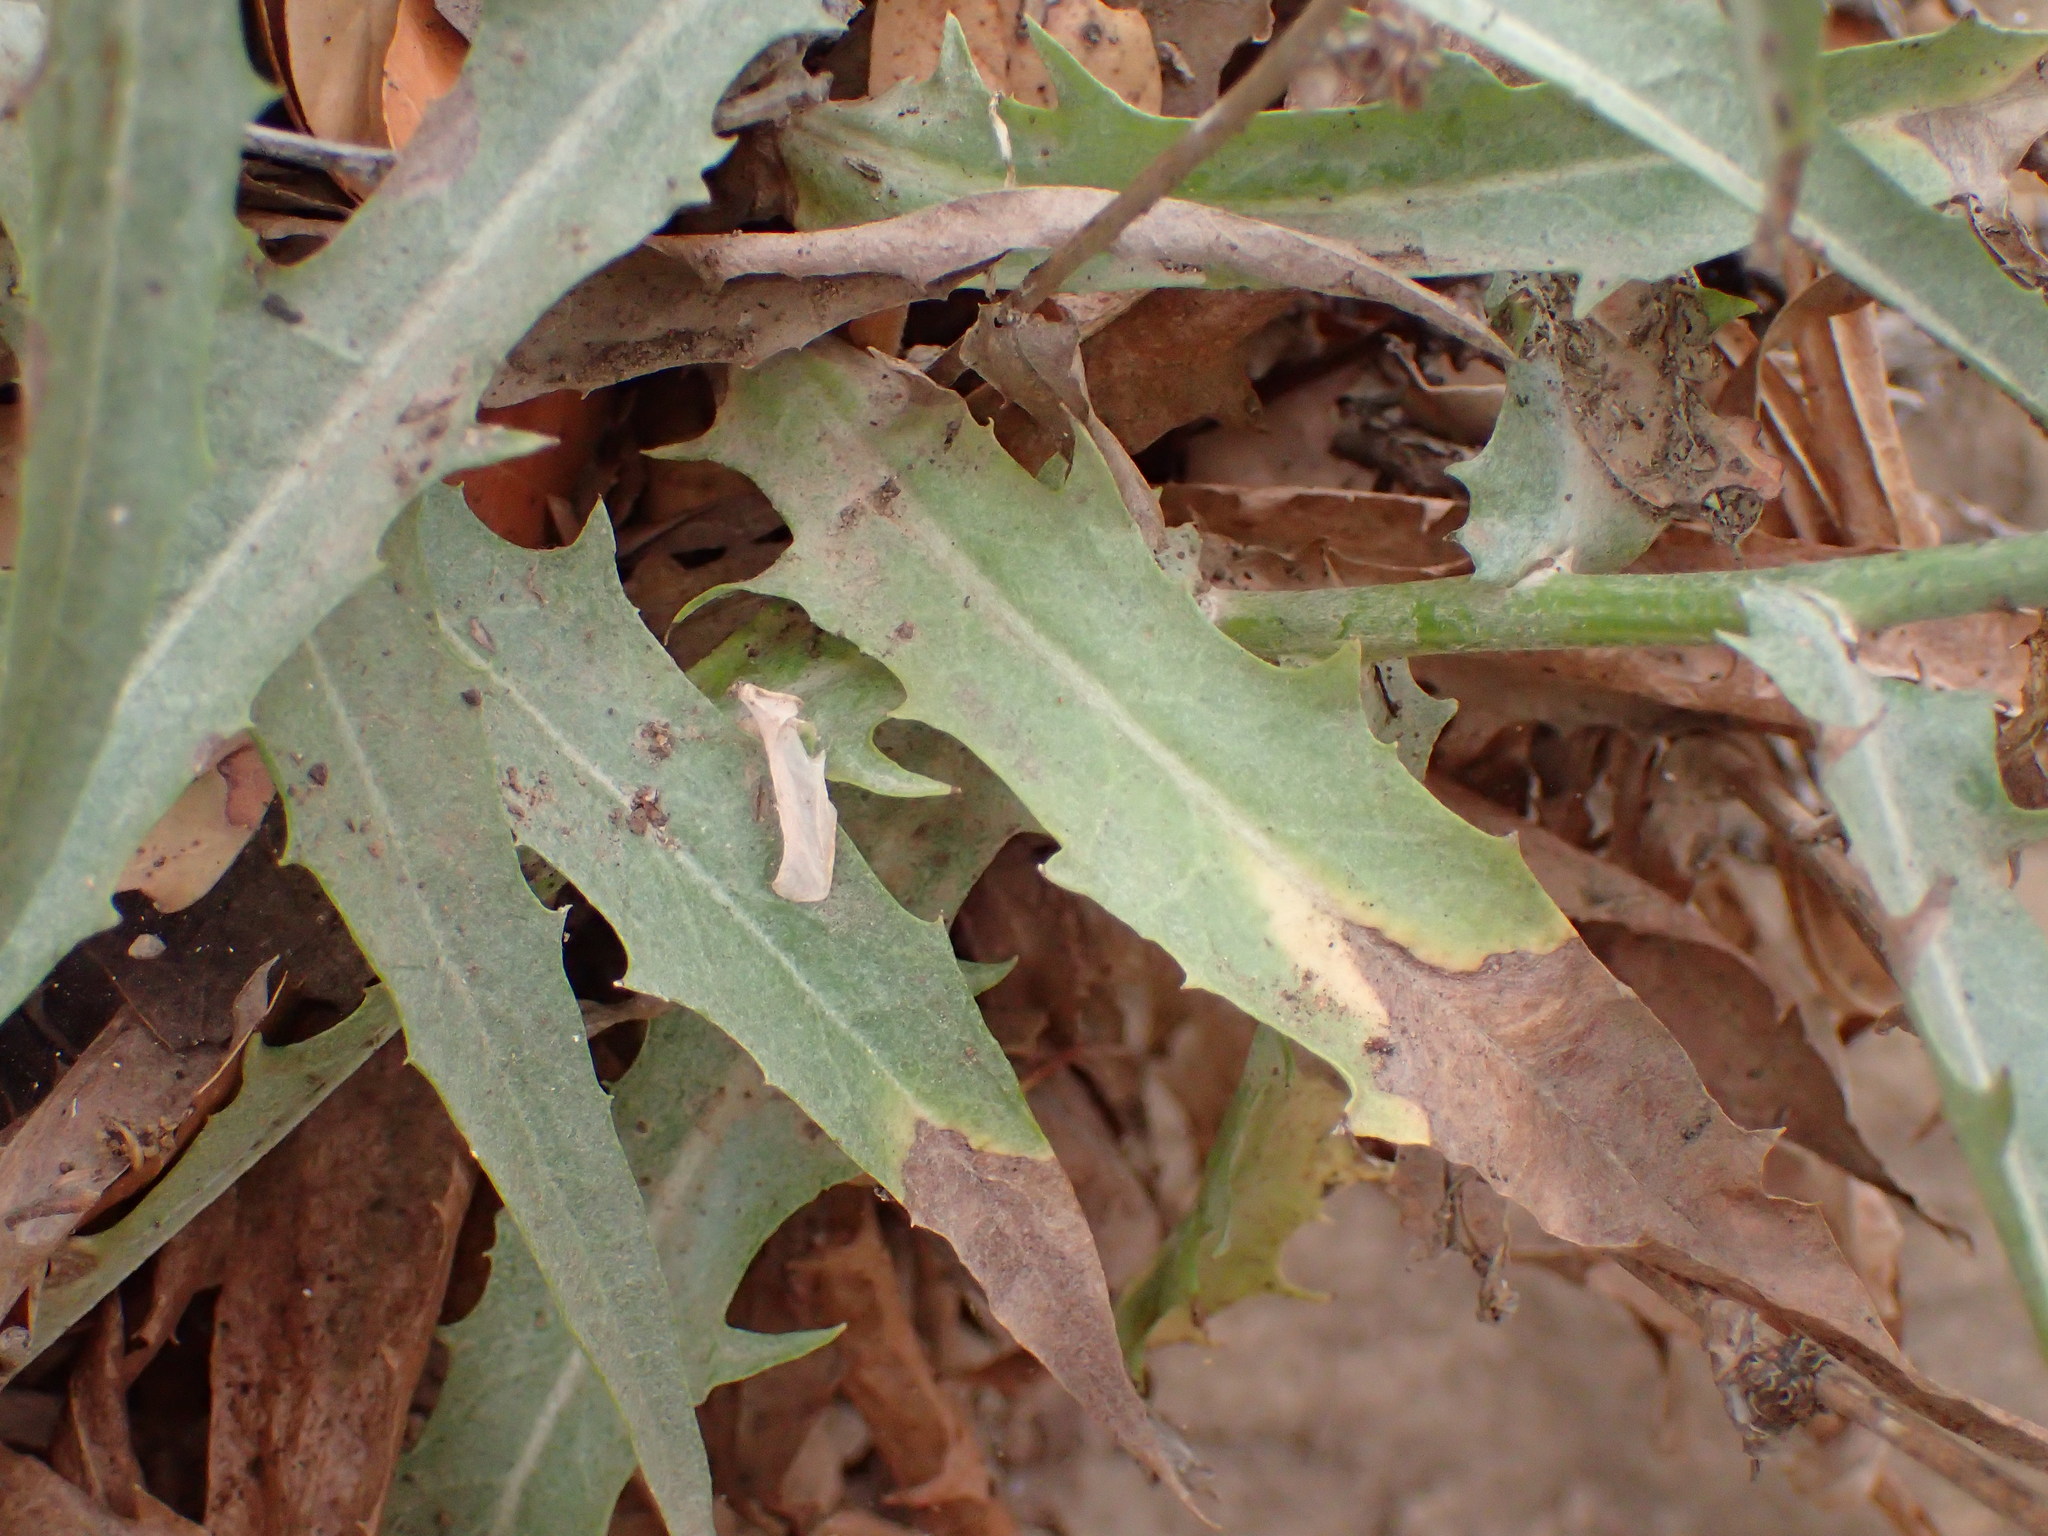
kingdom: Plantae
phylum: Tracheophyta
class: Magnoliopsida
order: Asterales
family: Asteraceae
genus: Stephanomeria
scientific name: Stephanomeria cichoriacea
